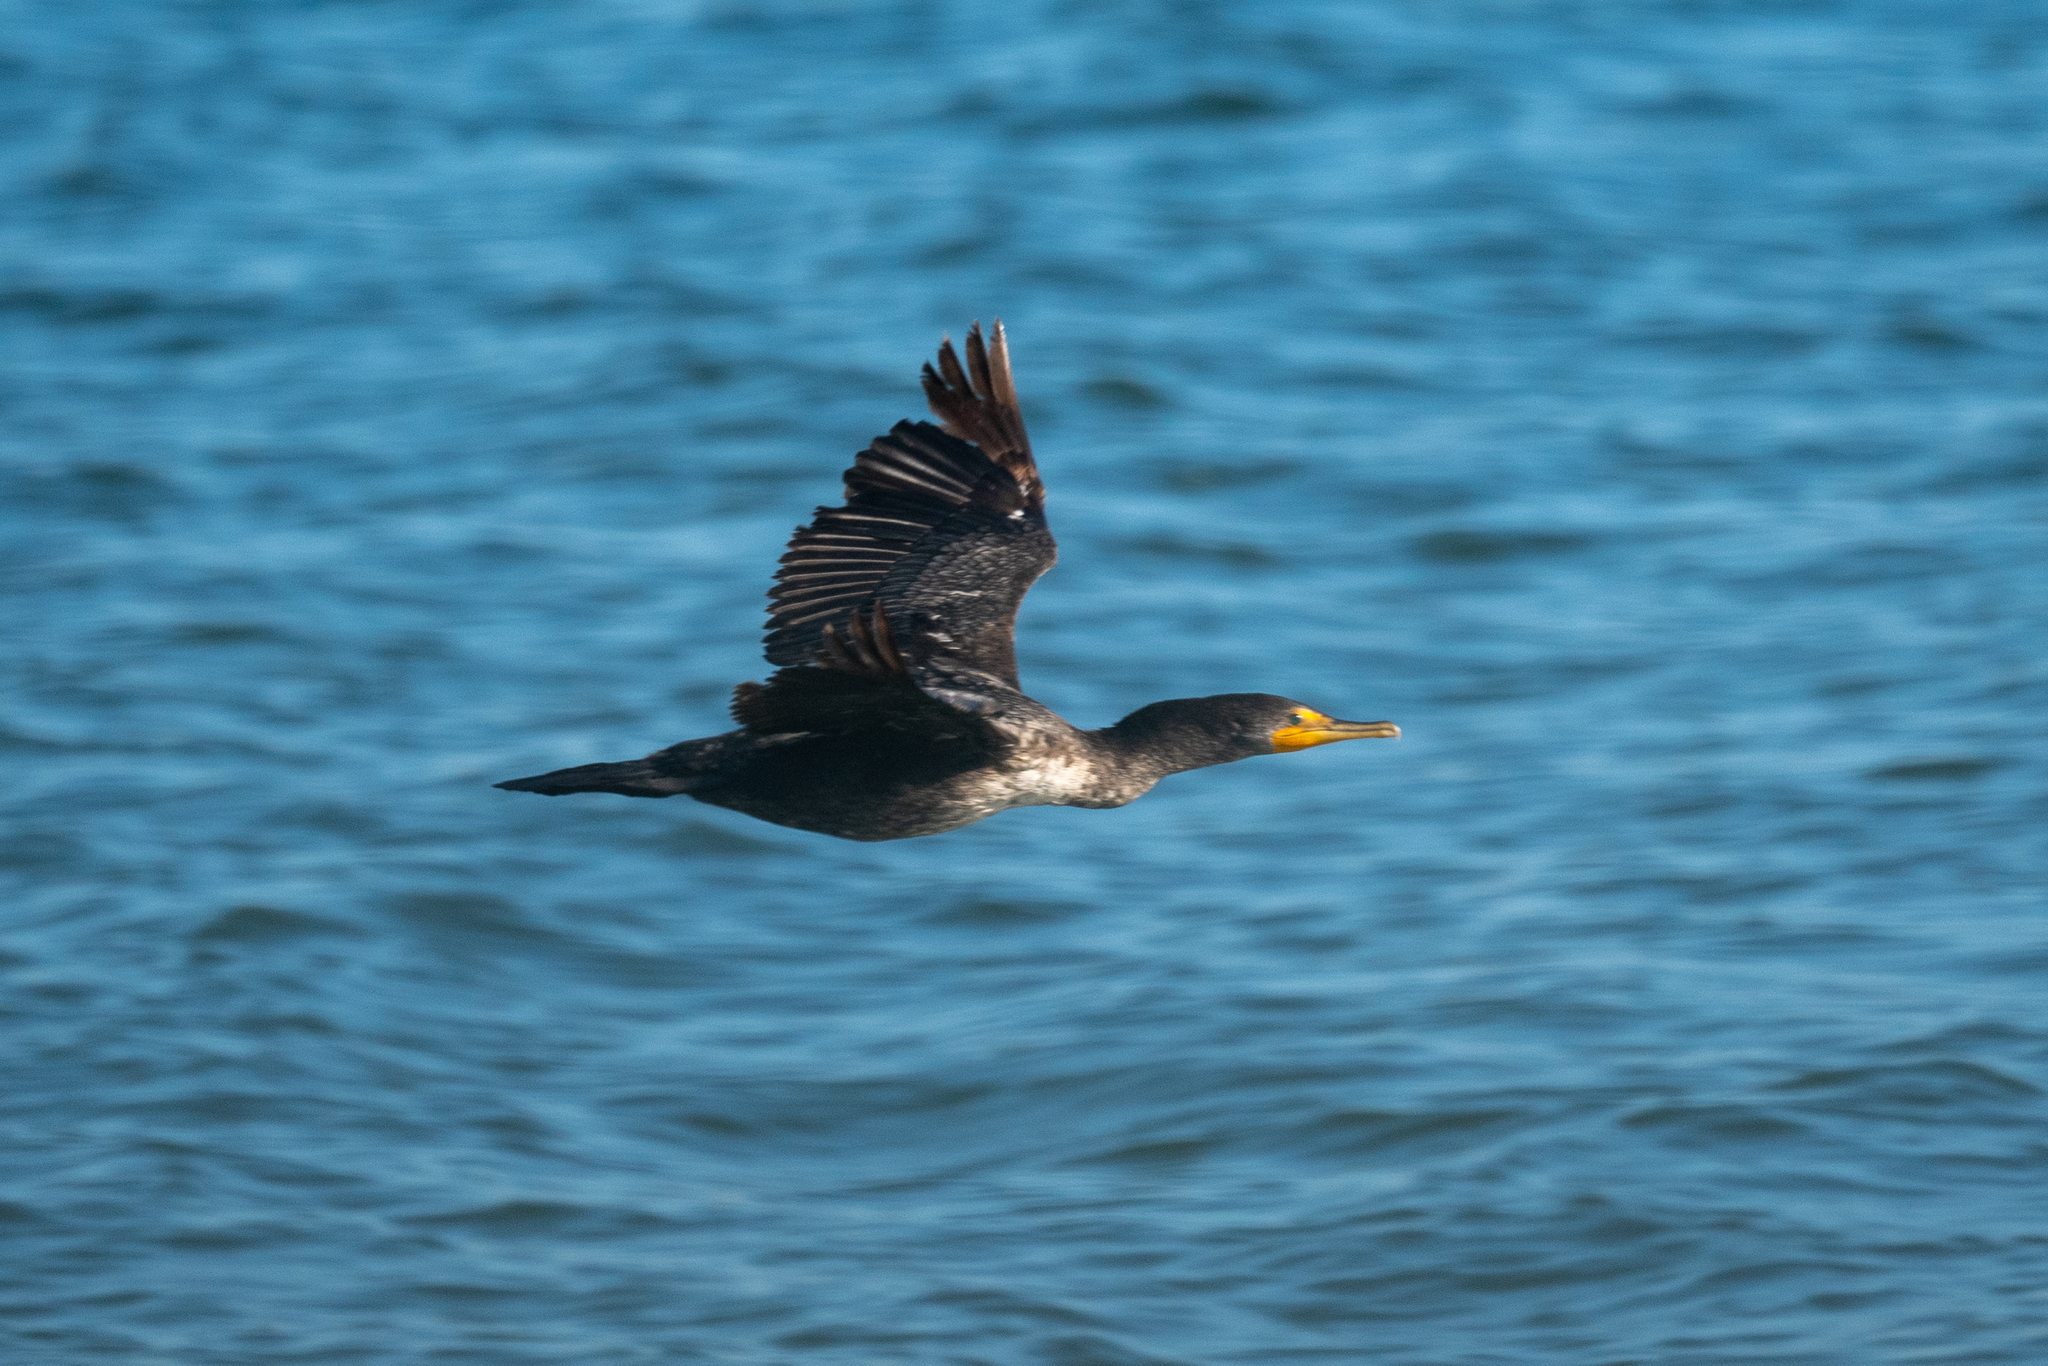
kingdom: Animalia
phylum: Chordata
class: Aves
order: Suliformes
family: Phalacrocoracidae
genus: Phalacrocorax
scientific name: Phalacrocorax auritus
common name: Double-crested cormorant
